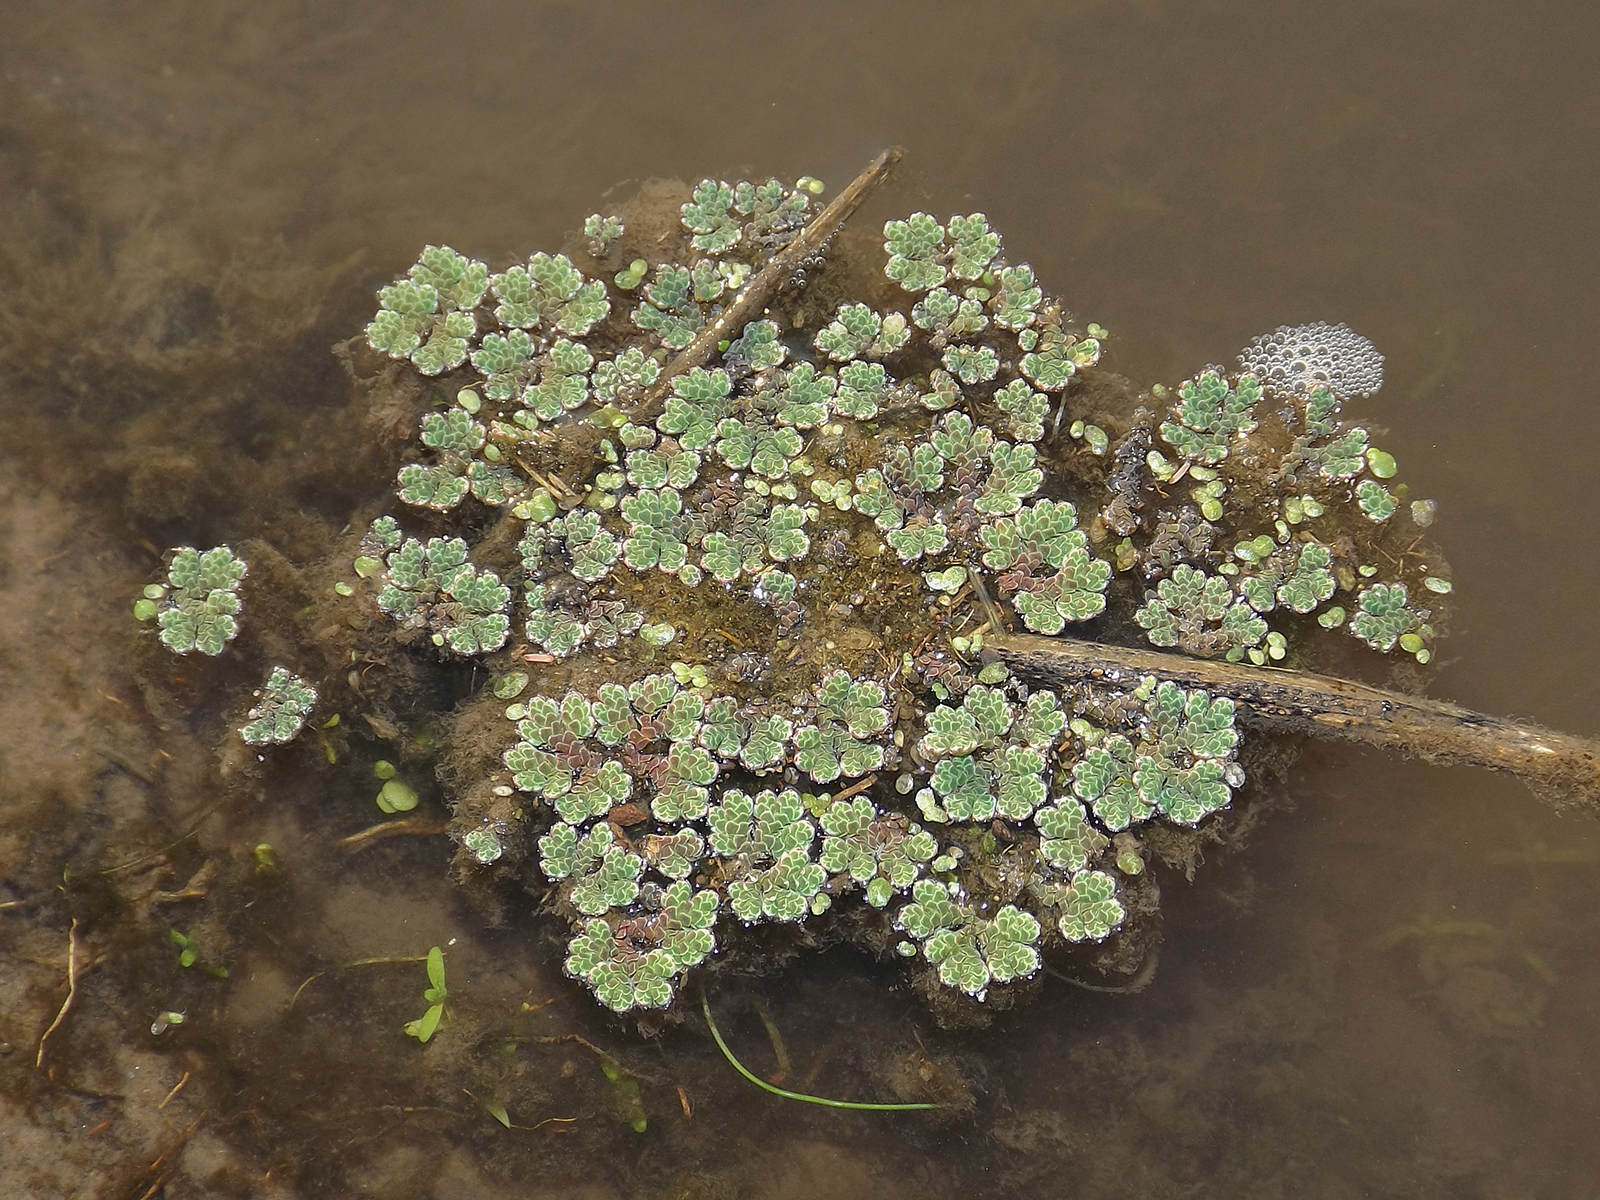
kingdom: Plantae
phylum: Tracheophyta
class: Polypodiopsida
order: Salviniales
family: Salviniaceae
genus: Azolla
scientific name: Azolla filiculoides
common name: Water fern
